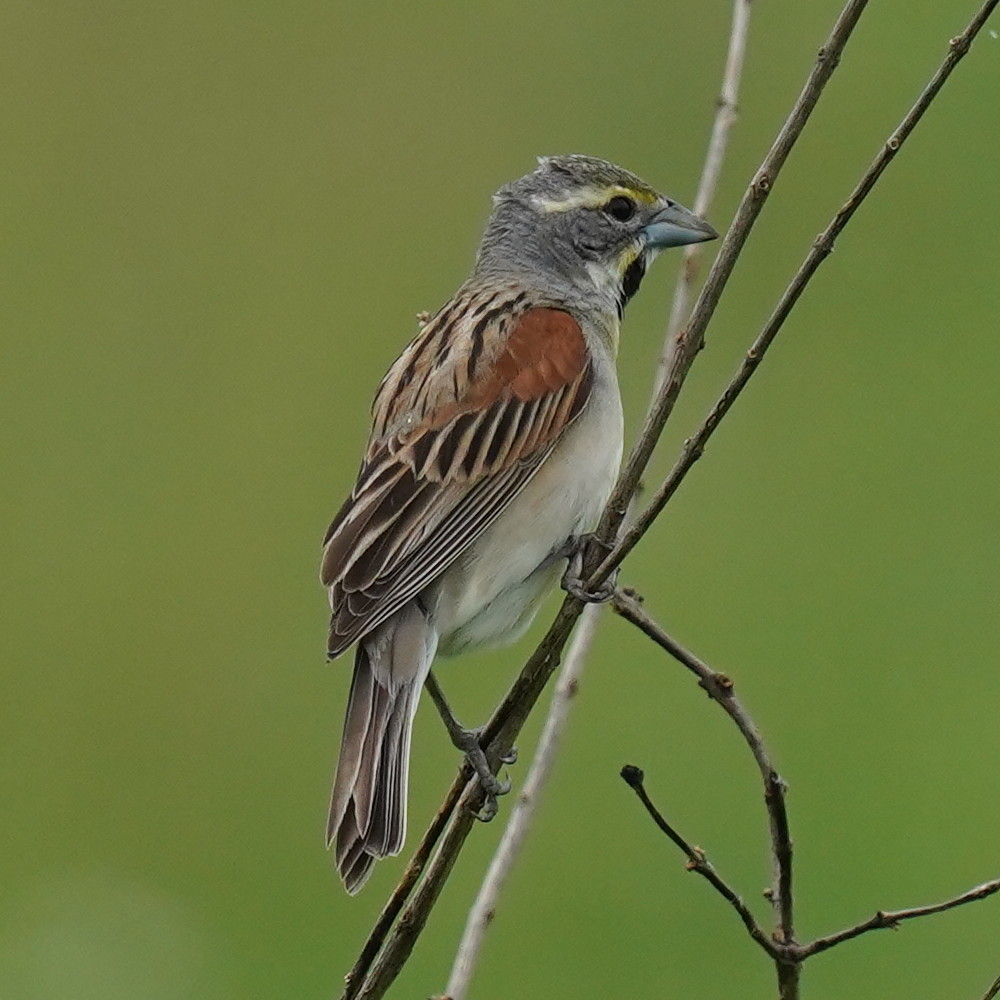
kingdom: Animalia
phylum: Chordata
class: Aves
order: Passeriformes
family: Cardinalidae
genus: Spiza
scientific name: Spiza americana
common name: Dickcissel
